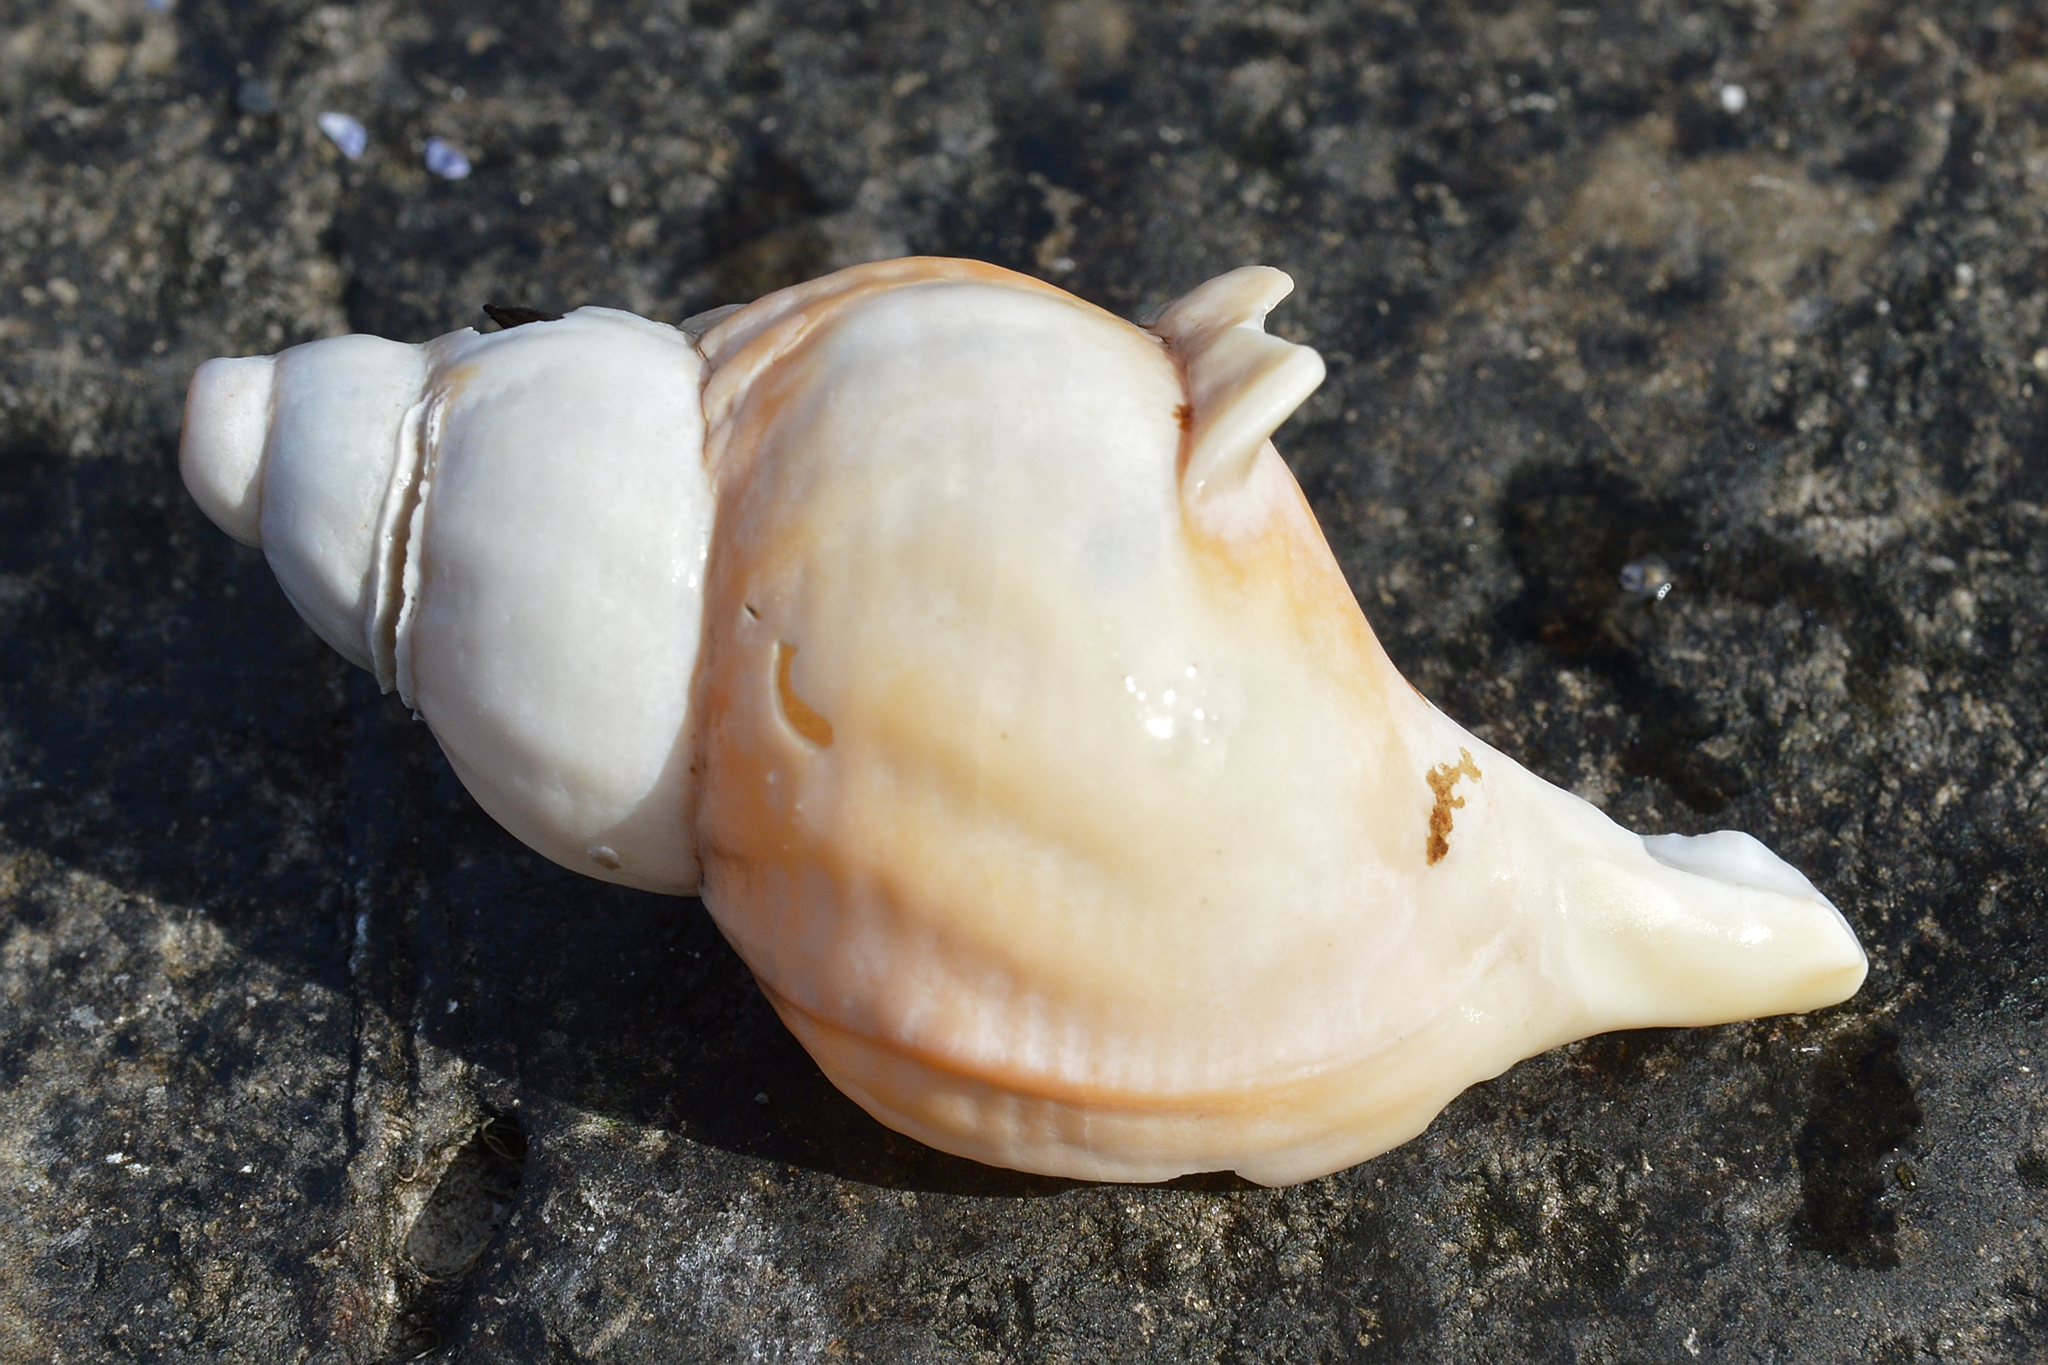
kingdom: Animalia
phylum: Mollusca
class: Gastropoda
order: Neogastropoda
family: Buccinidae
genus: Buccinum
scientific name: Buccinum undatum
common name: Common whelk
